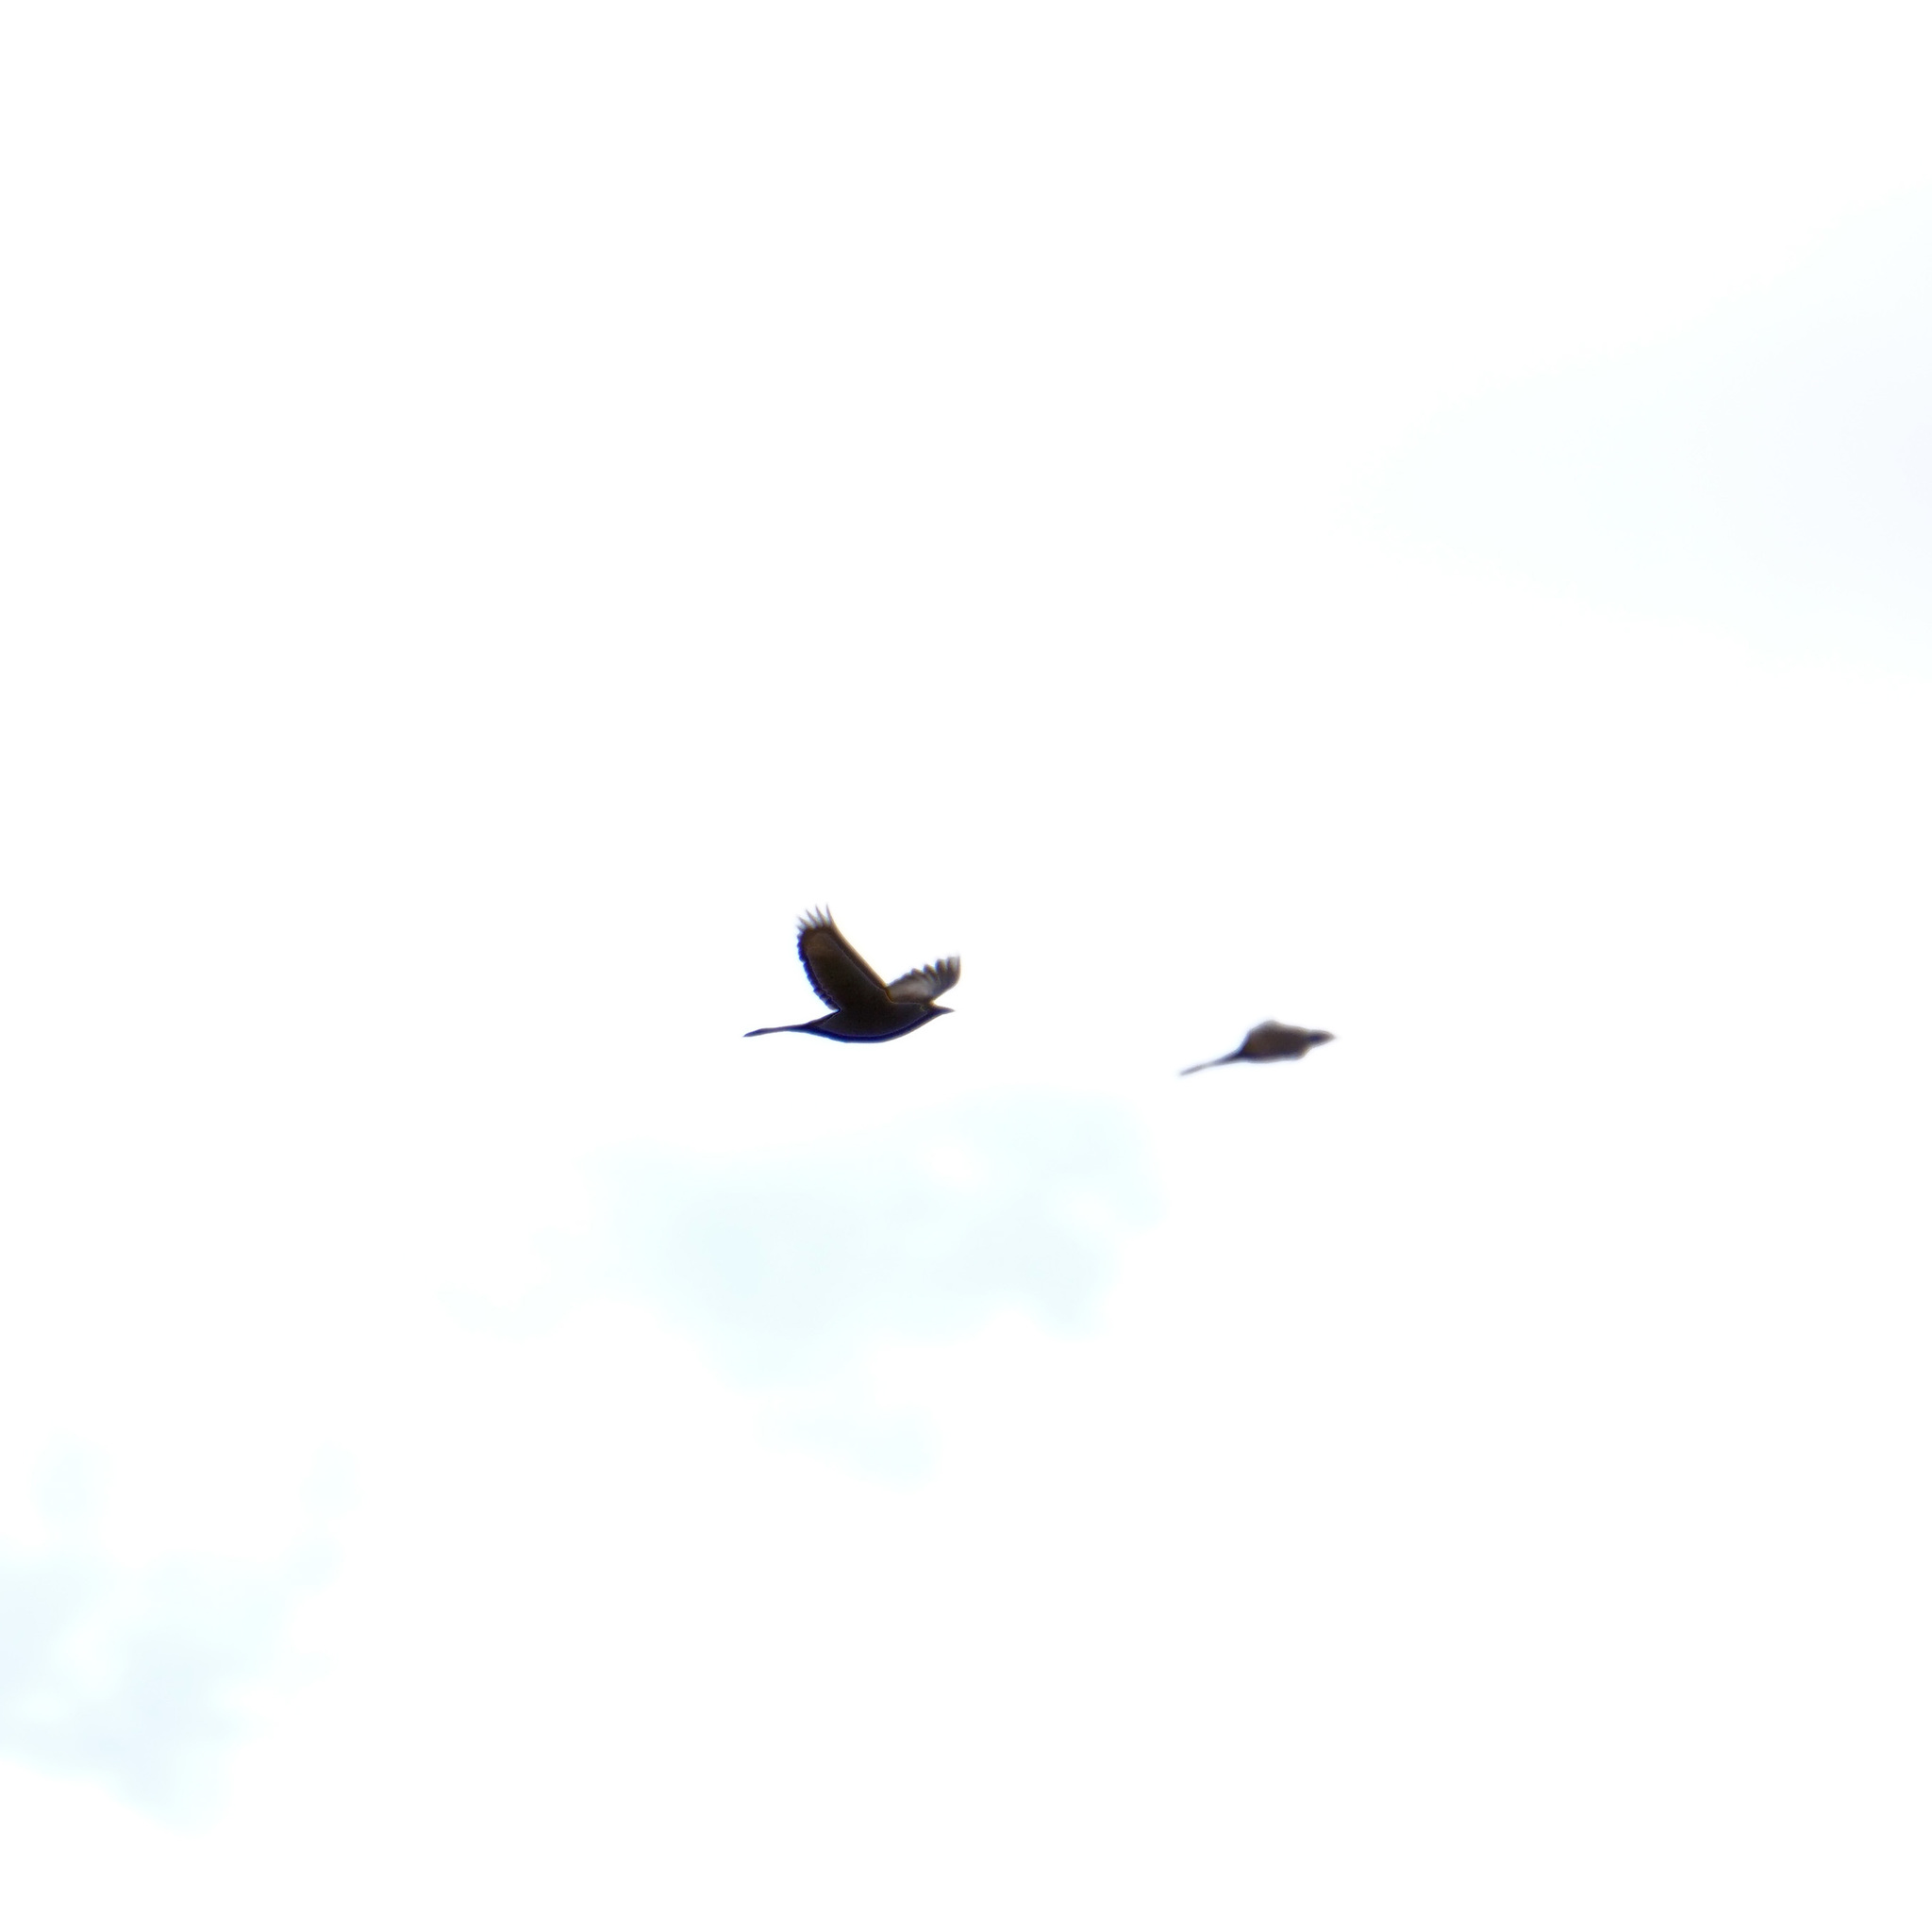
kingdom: Animalia
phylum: Chordata
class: Aves
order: Passeriformes
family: Icteridae
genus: Quiscalus
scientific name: Quiscalus quiscula
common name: Common grackle
